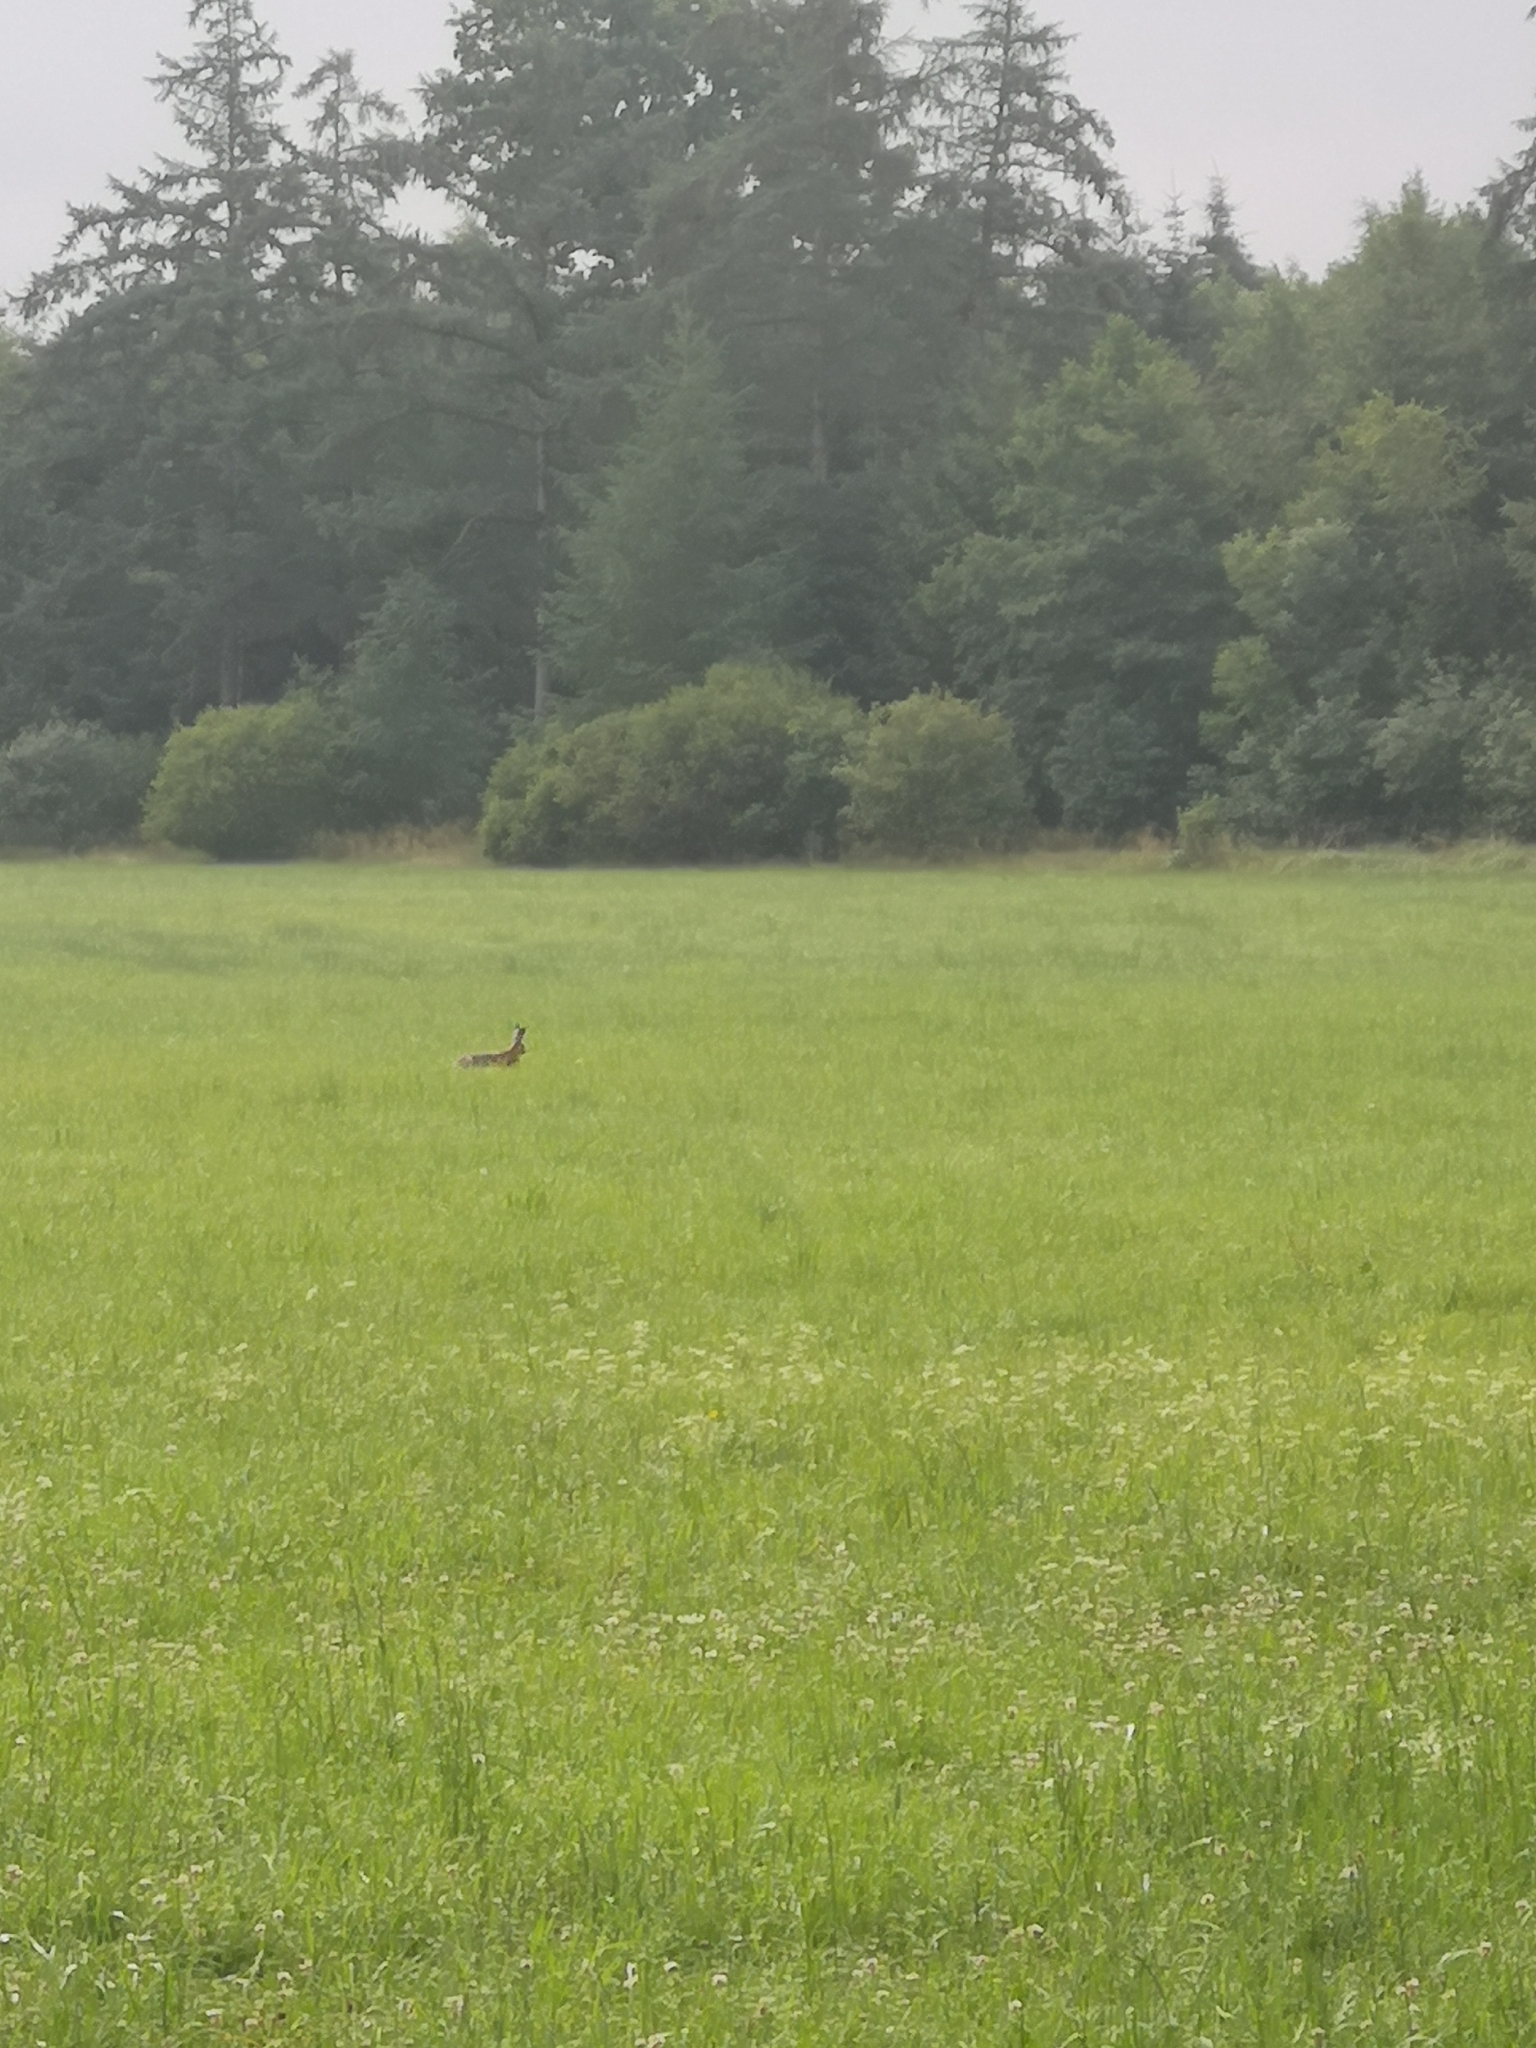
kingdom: Animalia
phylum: Chordata
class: Mammalia
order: Lagomorpha
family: Leporidae
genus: Lepus
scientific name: Lepus europaeus
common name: European hare
